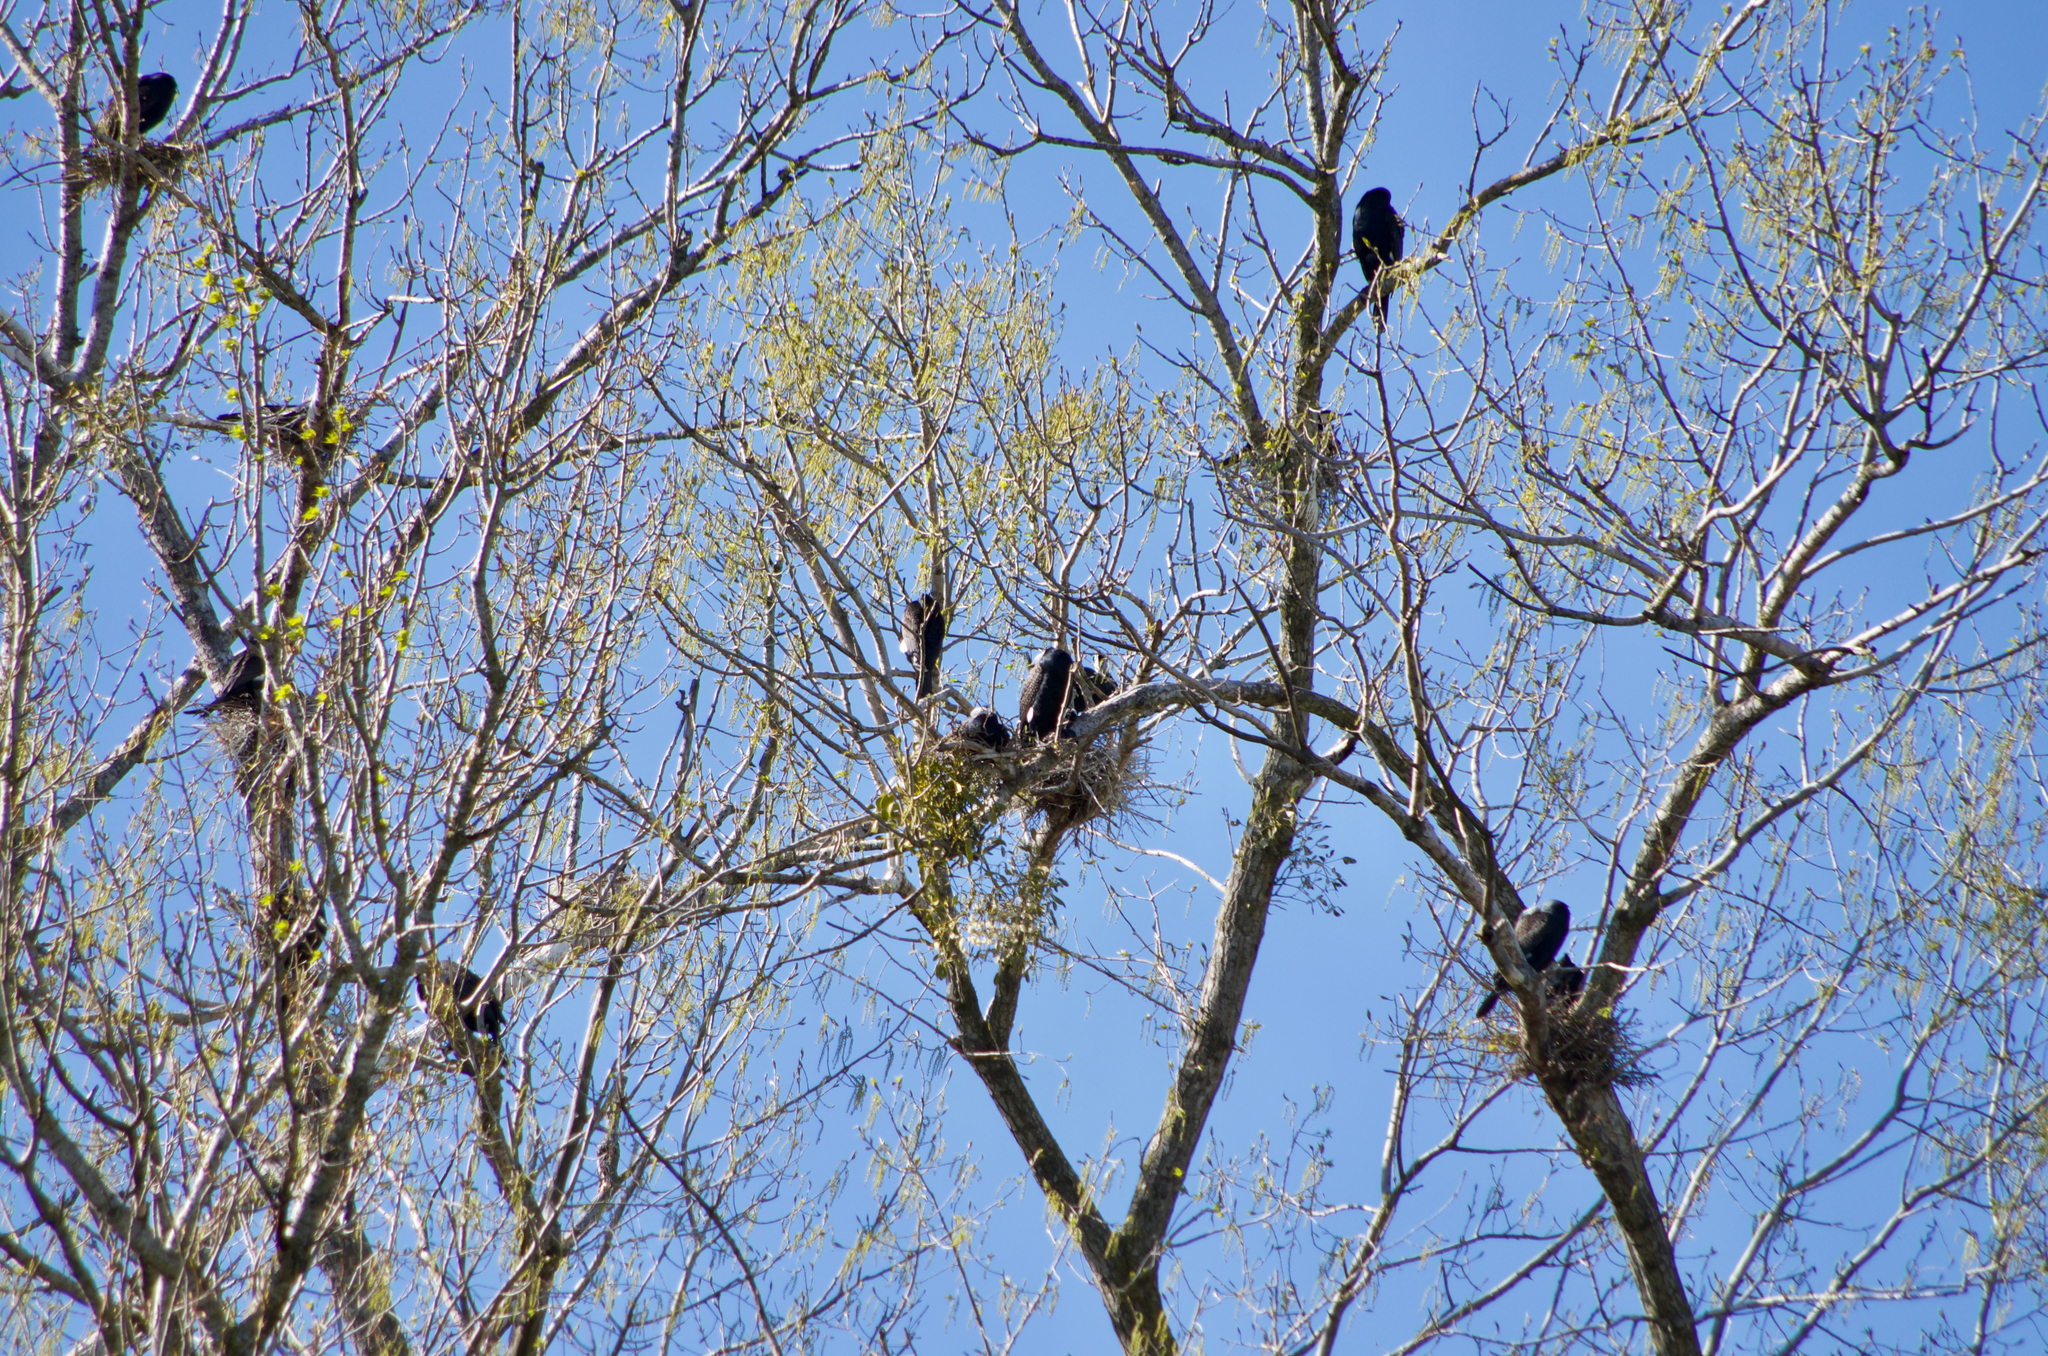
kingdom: Animalia
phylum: Chordata
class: Aves
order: Suliformes
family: Phalacrocoracidae
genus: Phalacrocorax
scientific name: Phalacrocorax carbo
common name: Great cormorant
